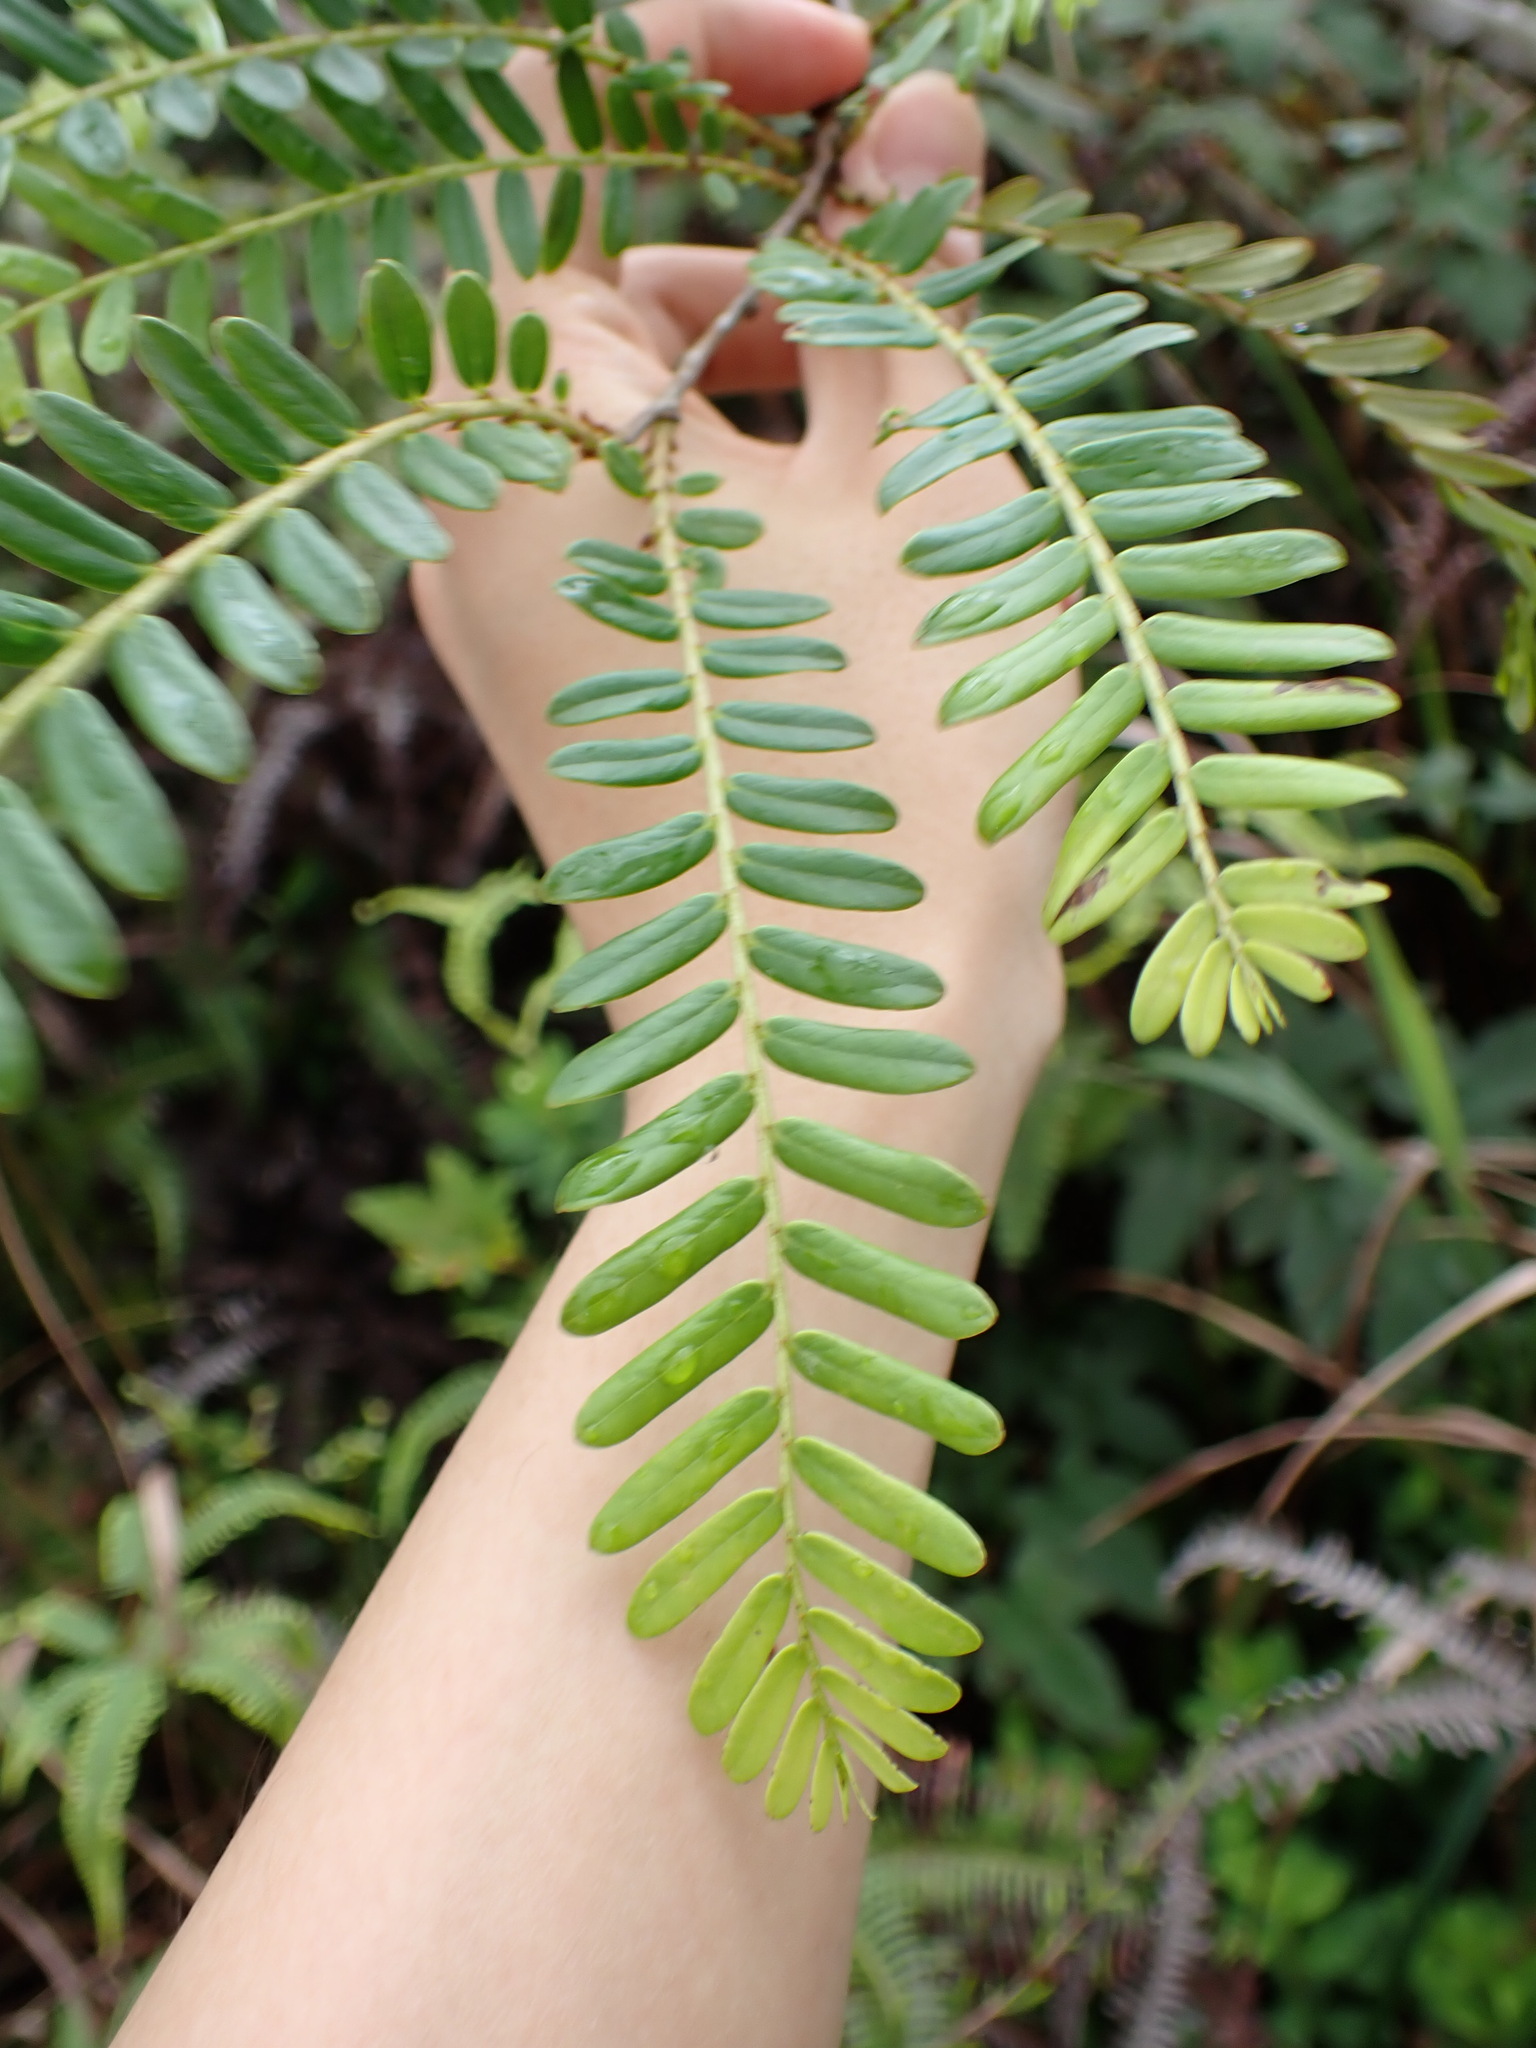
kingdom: Plantae
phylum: Tracheophyta
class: Magnoliopsida
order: Malpighiales
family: Phyllanthaceae
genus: Phyllanthus
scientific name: Phyllanthus emblica
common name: Indian gooseberry
